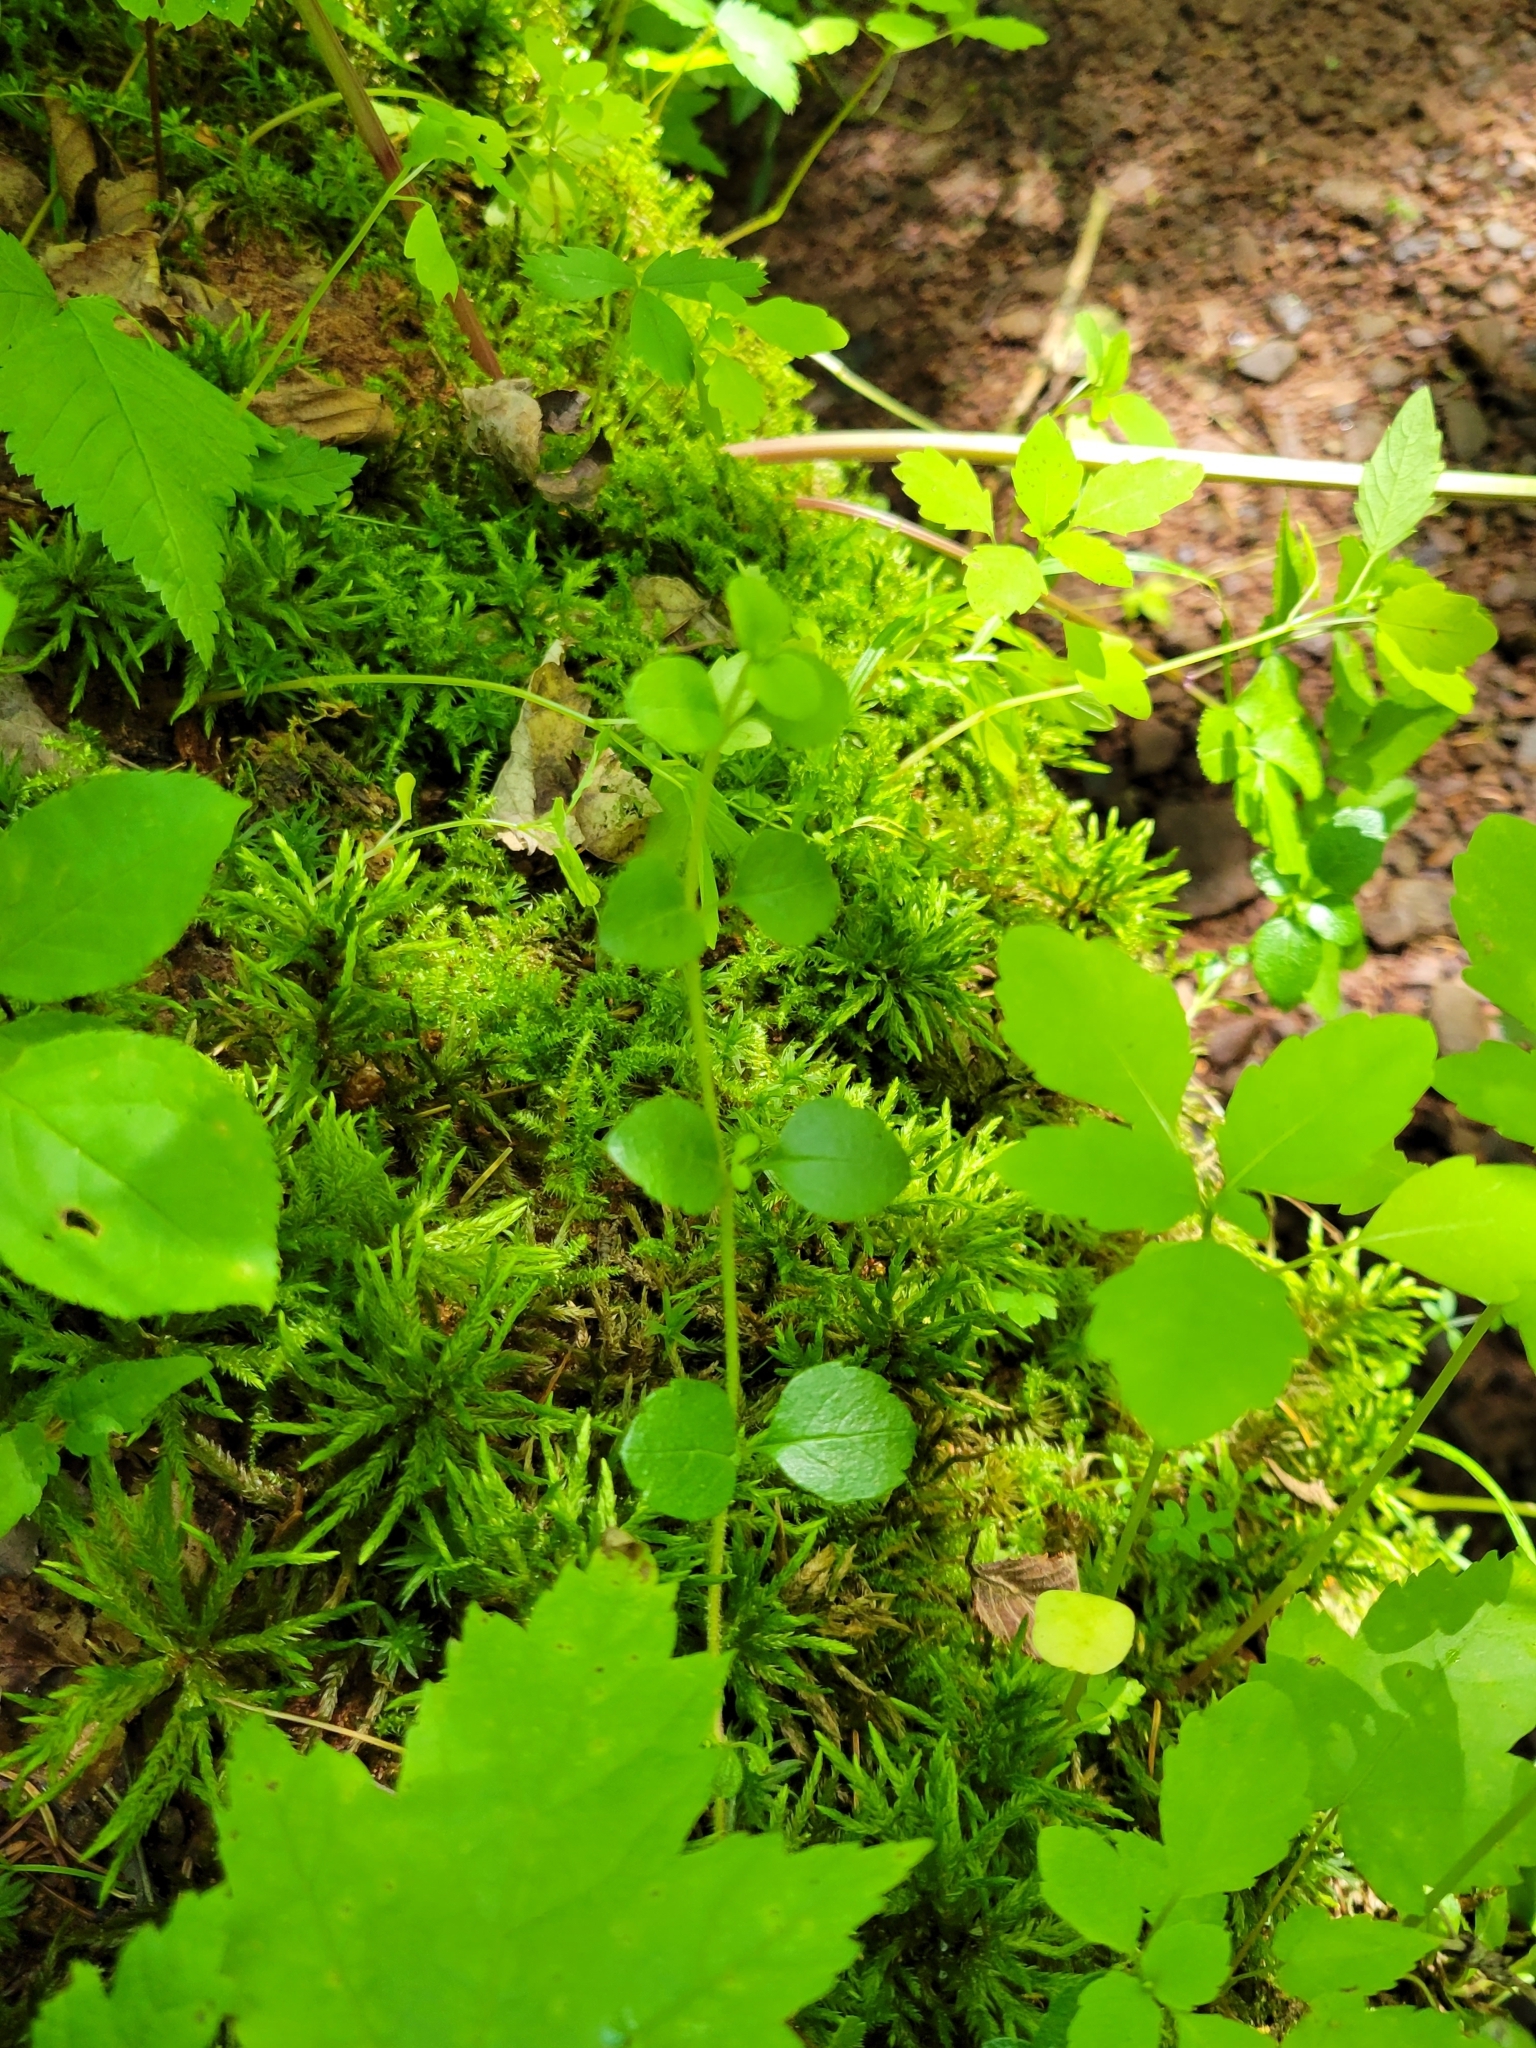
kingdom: Plantae
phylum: Tracheophyta
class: Magnoliopsida
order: Dipsacales
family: Caprifoliaceae
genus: Linnaea
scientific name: Linnaea borealis
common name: Twinflower
